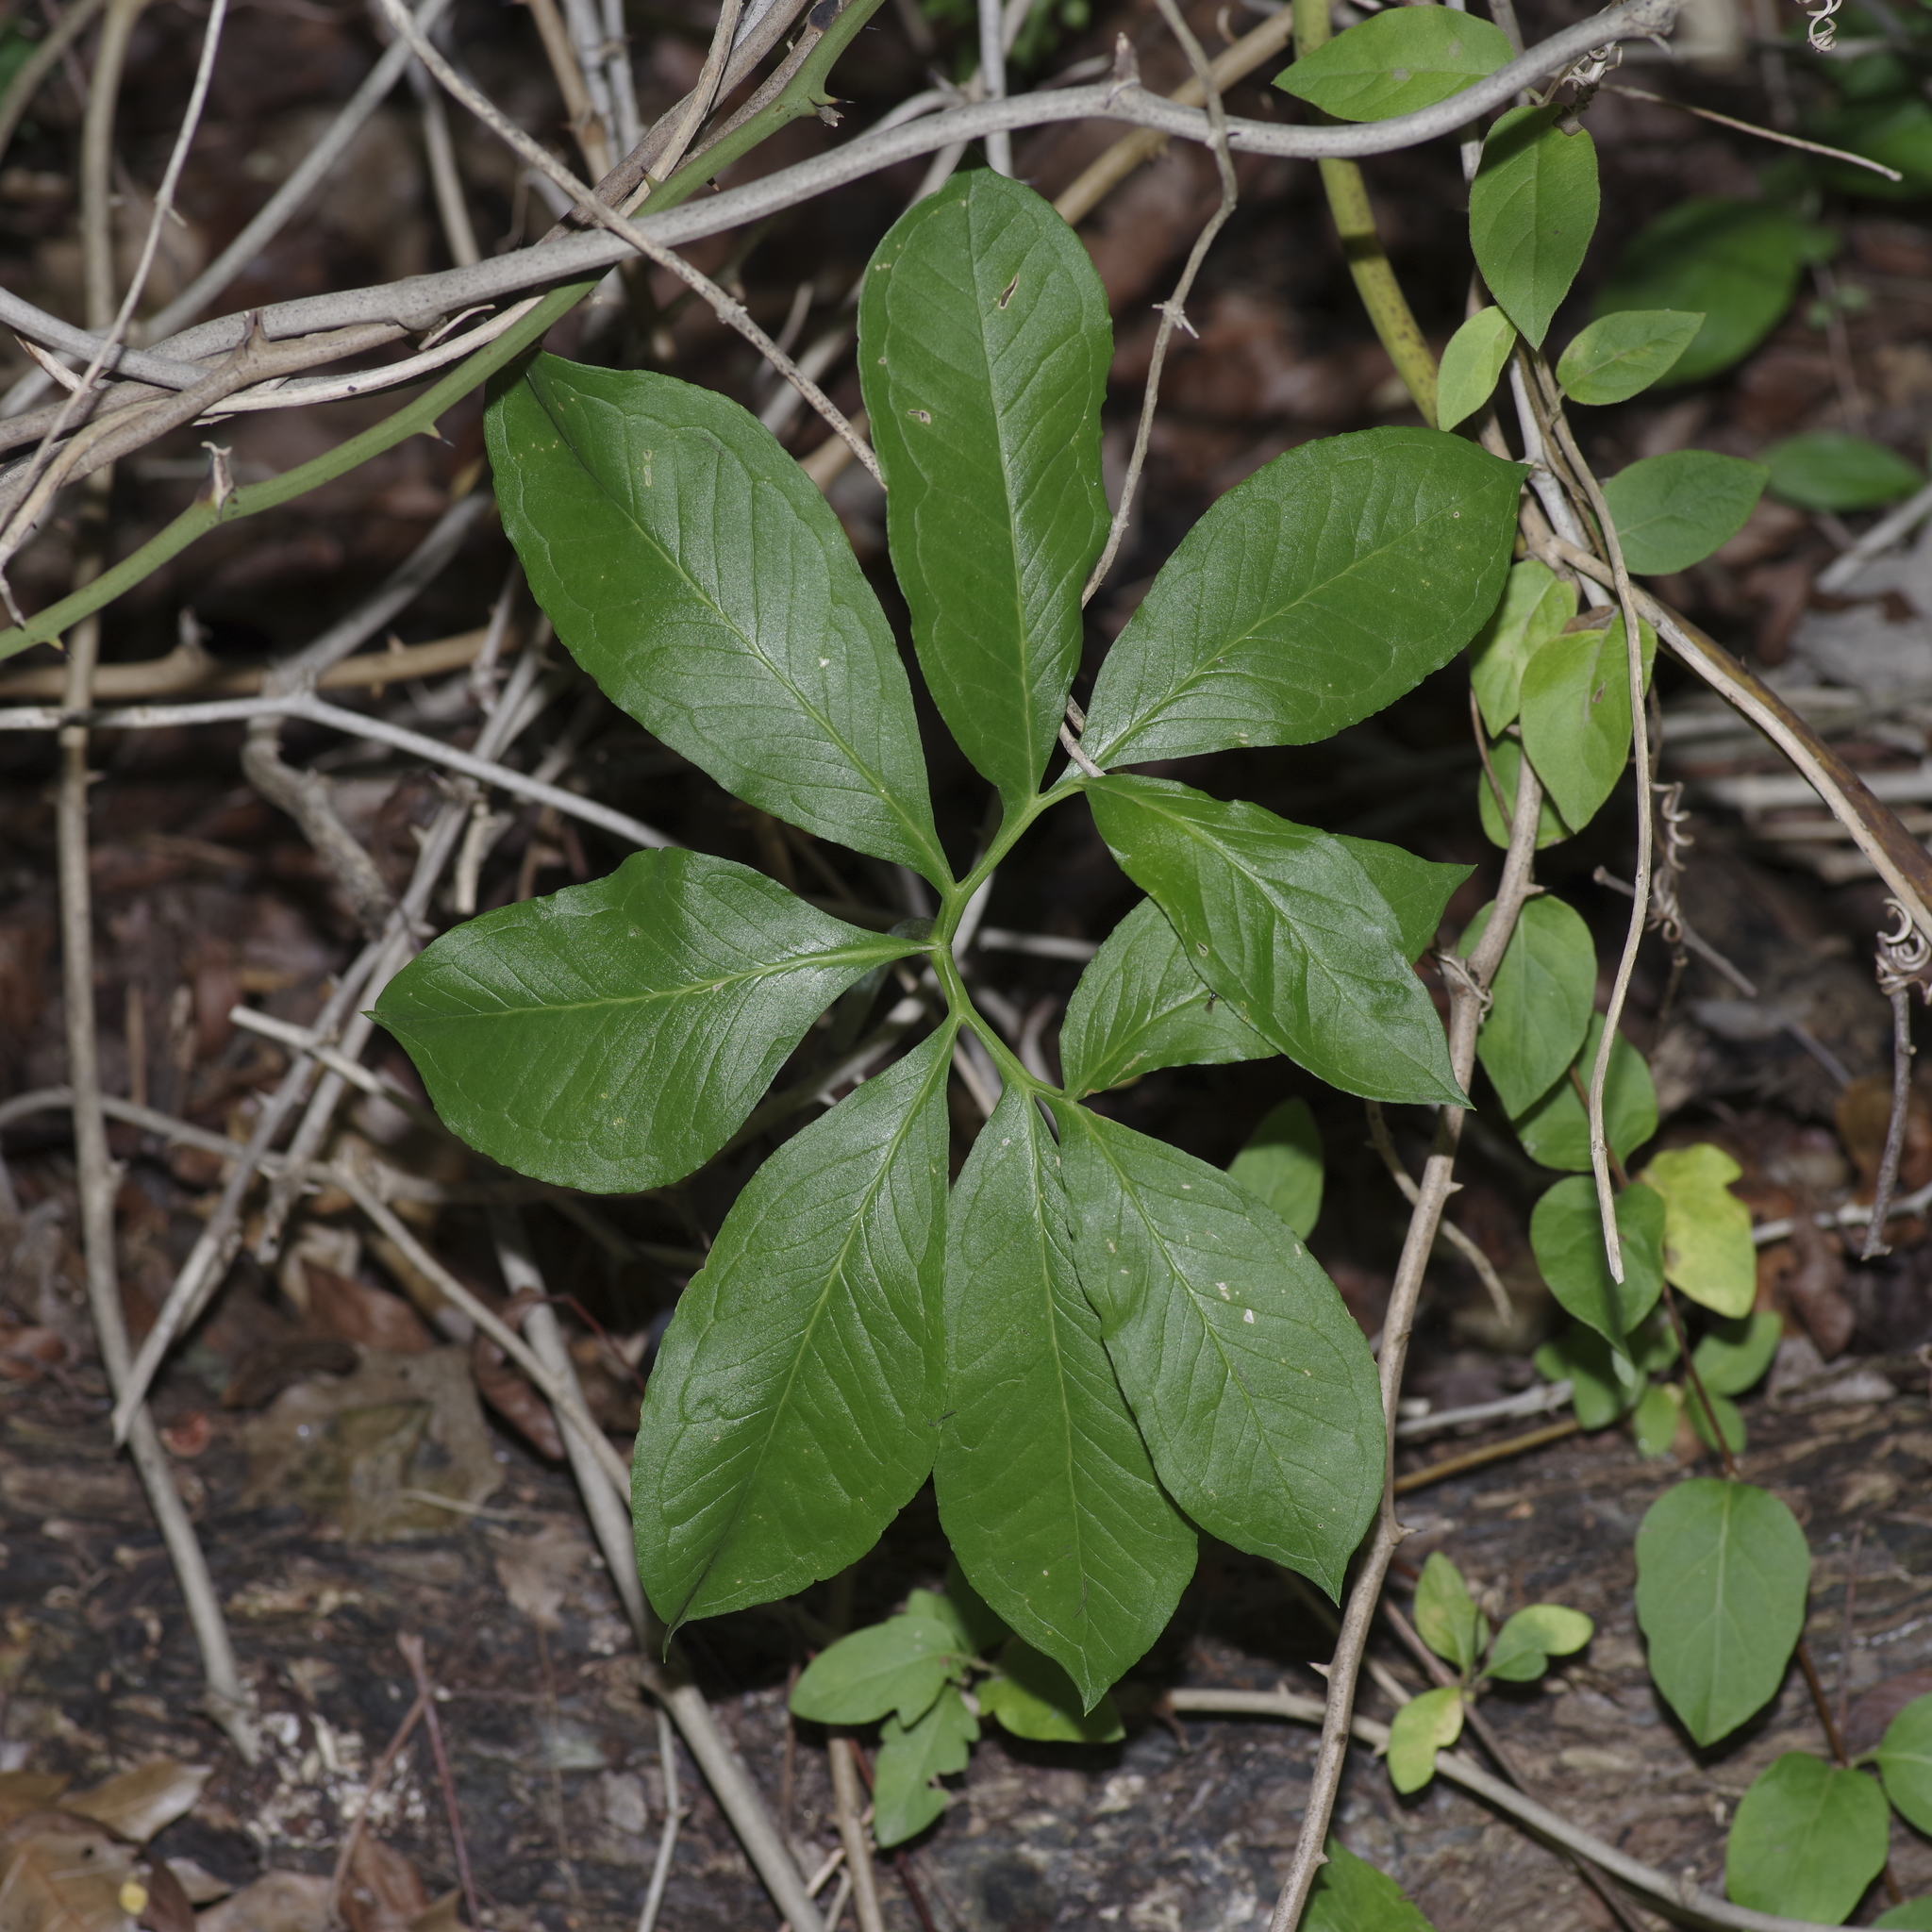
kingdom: Plantae
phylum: Tracheophyta
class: Liliopsida
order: Alismatales
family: Araceae
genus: Arisaema
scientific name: Arisaema dracontium
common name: Dragon-arum
